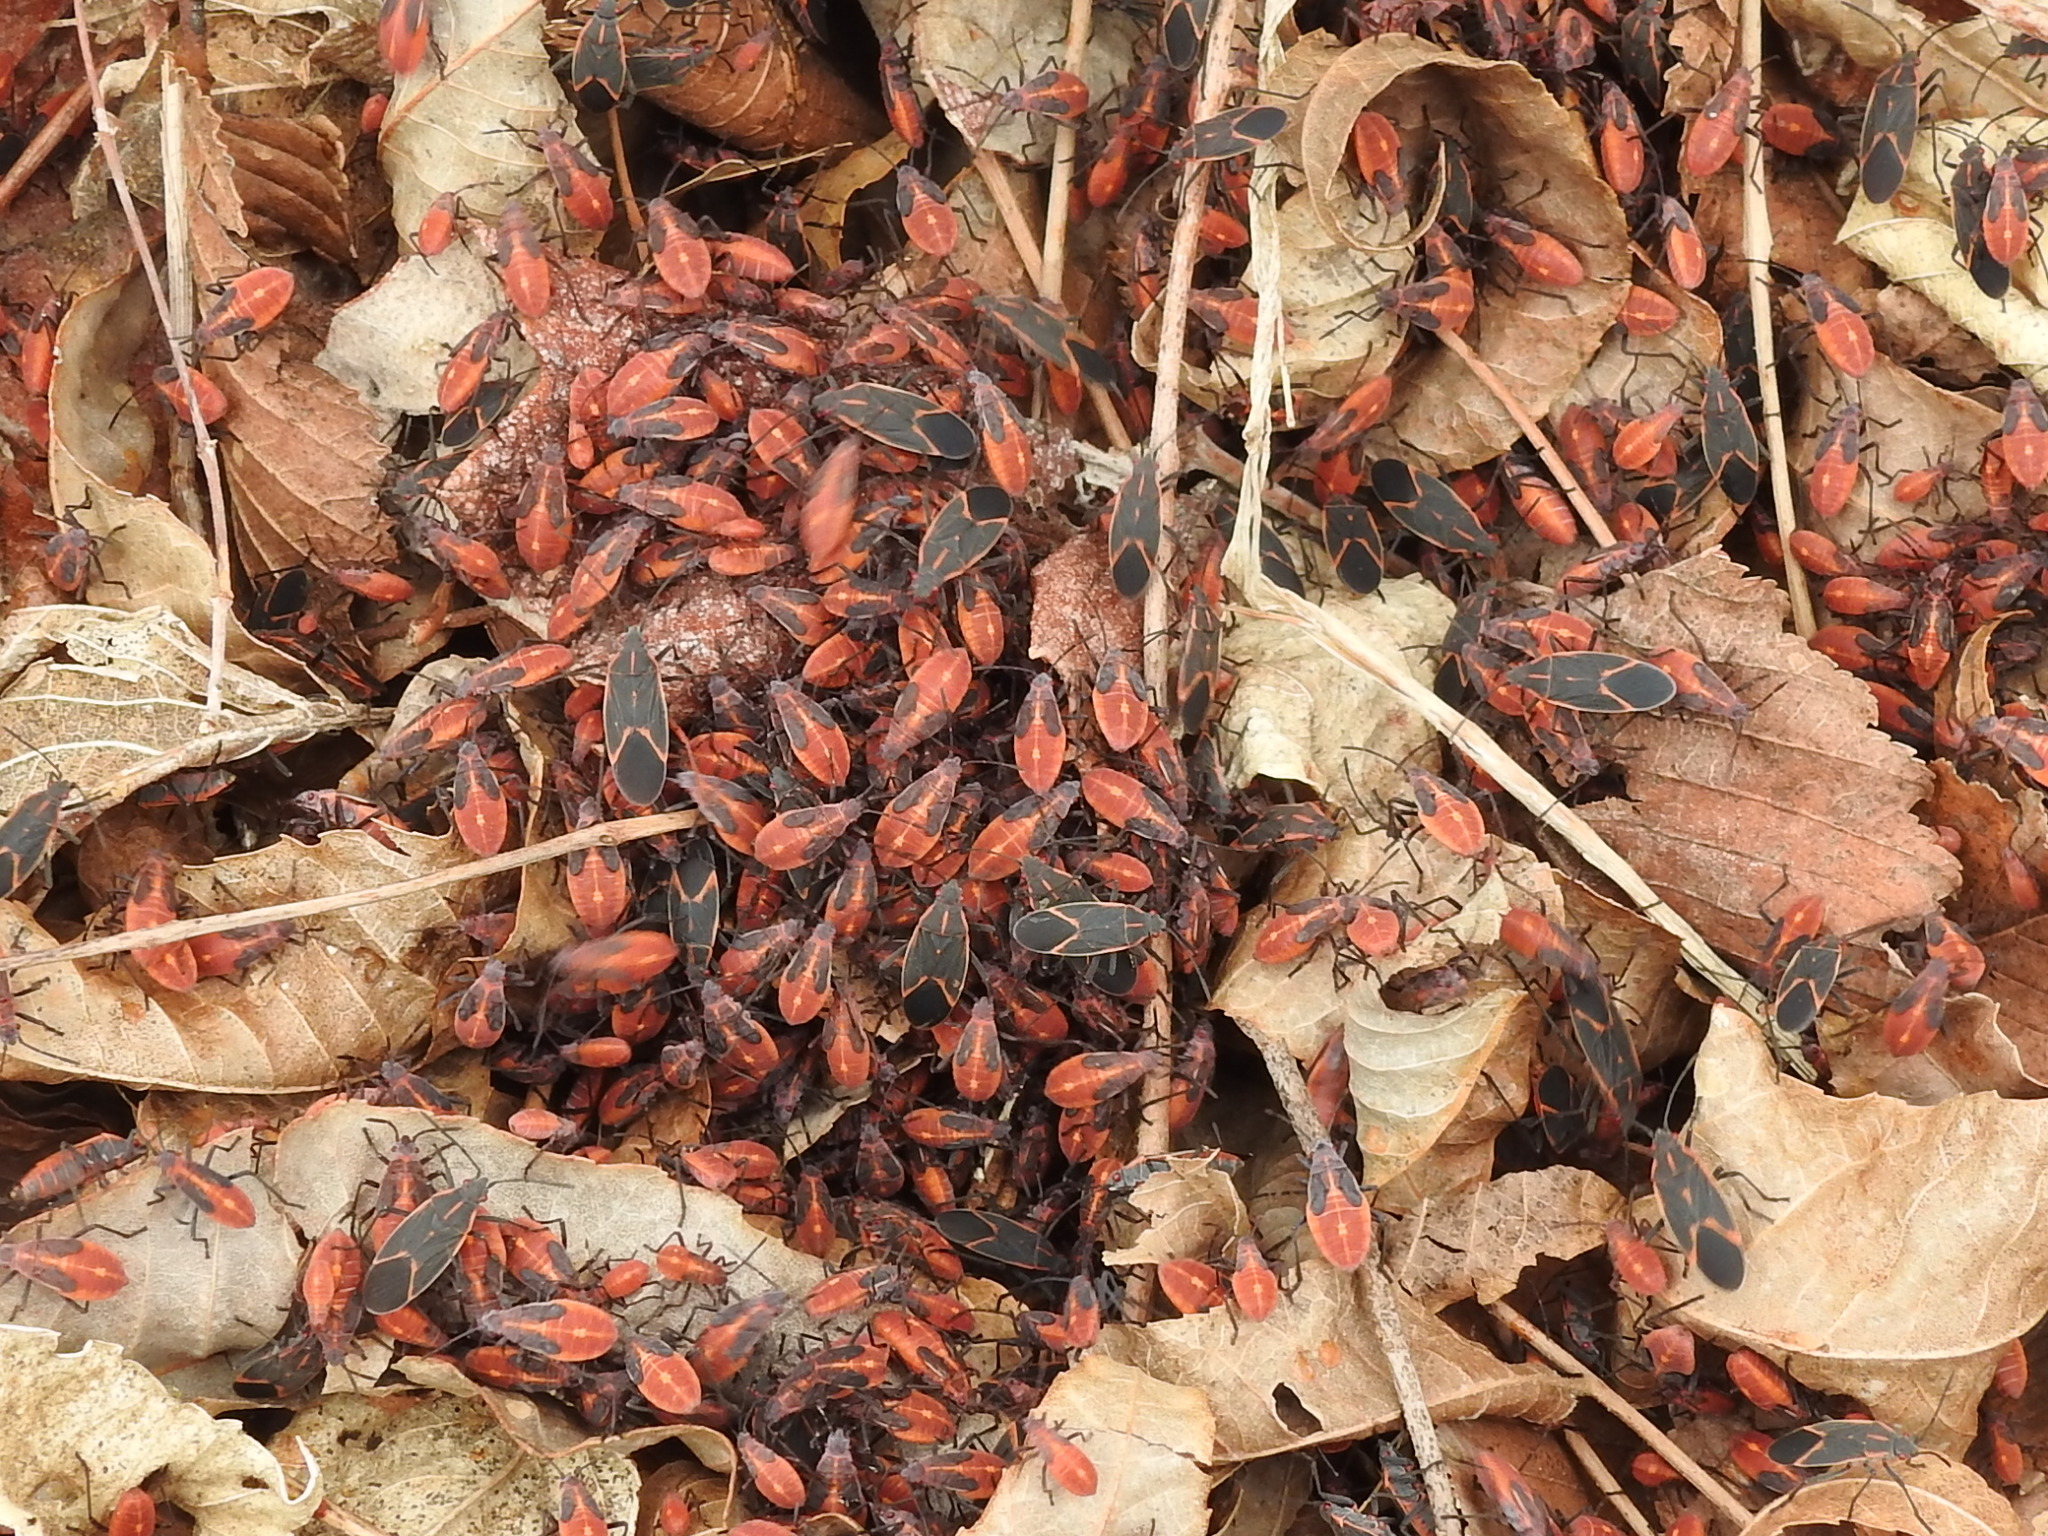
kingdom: Animalia
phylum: Arthropoda
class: Insecta
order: Hemiptera
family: Rhopalidae
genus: Boisea
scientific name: Boisea trivittata
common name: Boxelder bug
